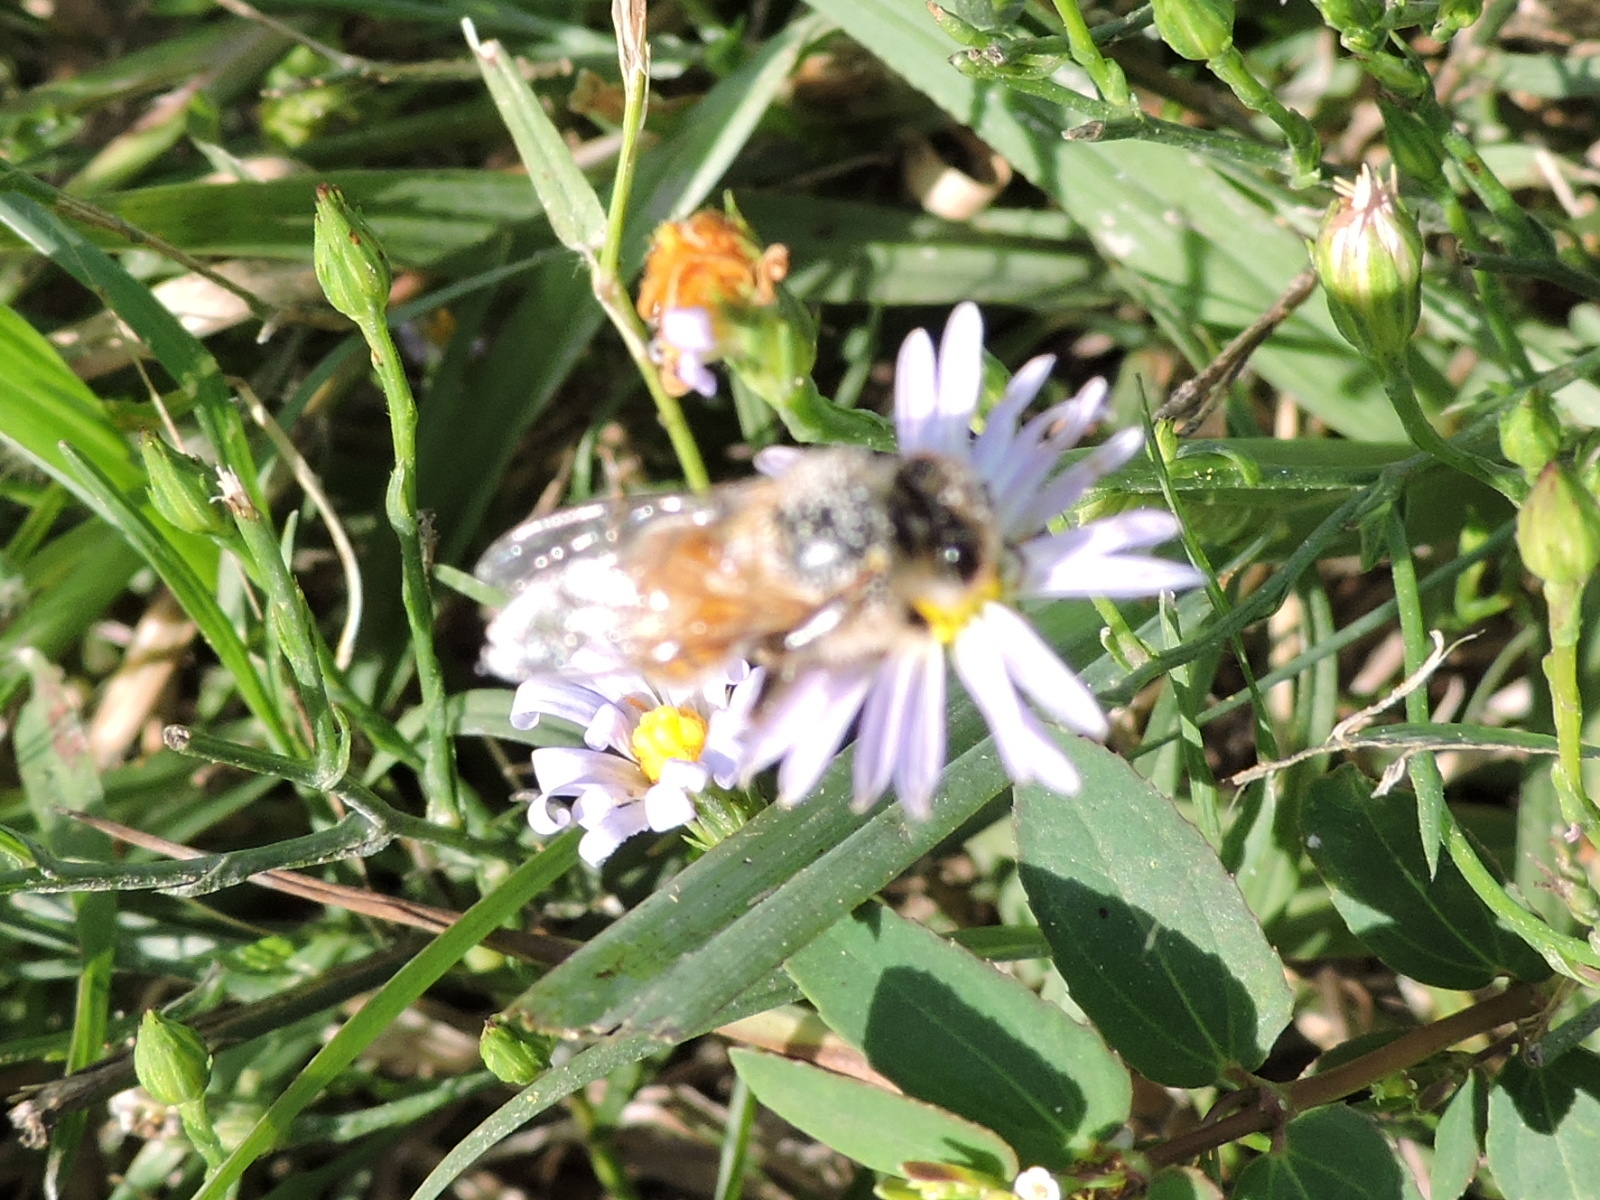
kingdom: Animalia
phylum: Arthropoda
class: Insecta
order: Hymenoptera
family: Apidae
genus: Apis
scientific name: Apis mellifera
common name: Honey bee
